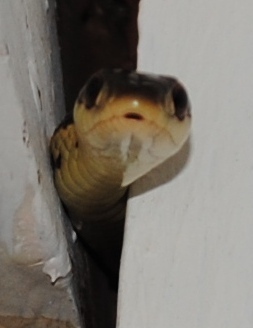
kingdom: Animalia
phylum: Chordata
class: Squamata
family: Colubridae
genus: Thamnophis
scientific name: Thamnophis sirtalis
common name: Common garter snake
